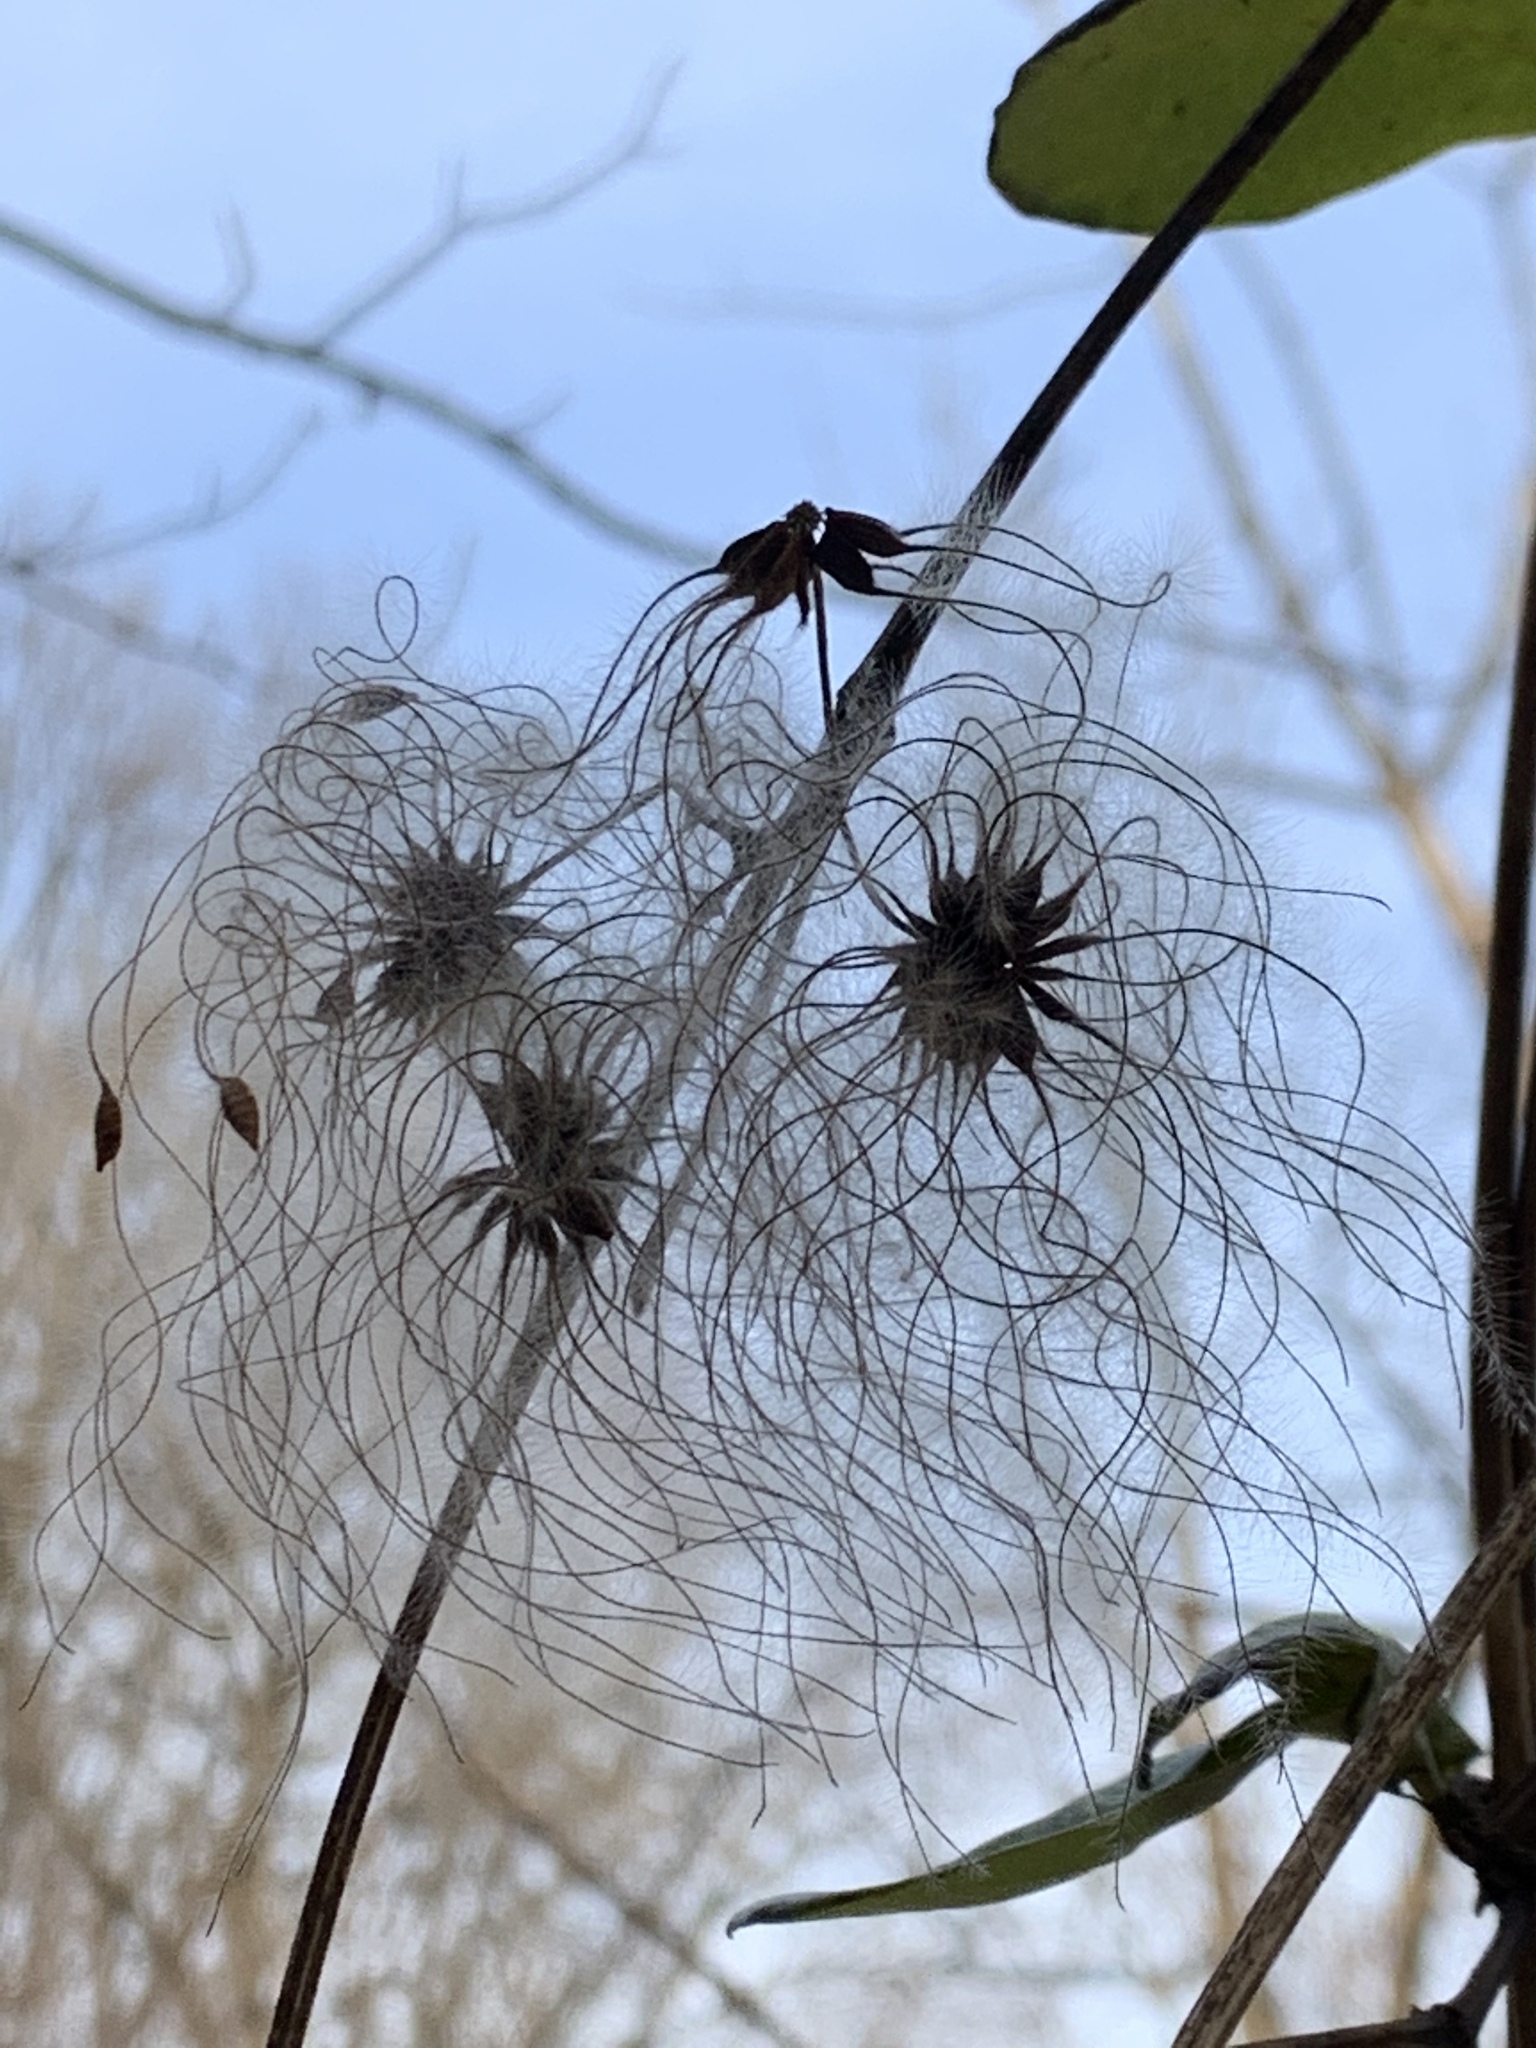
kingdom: Plantae
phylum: Tracheophyta
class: Magnoliopsida
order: Ranunculales
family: Ranunculaceae
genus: Clematis
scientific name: Clematis virginiana
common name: Virgin's-bower
